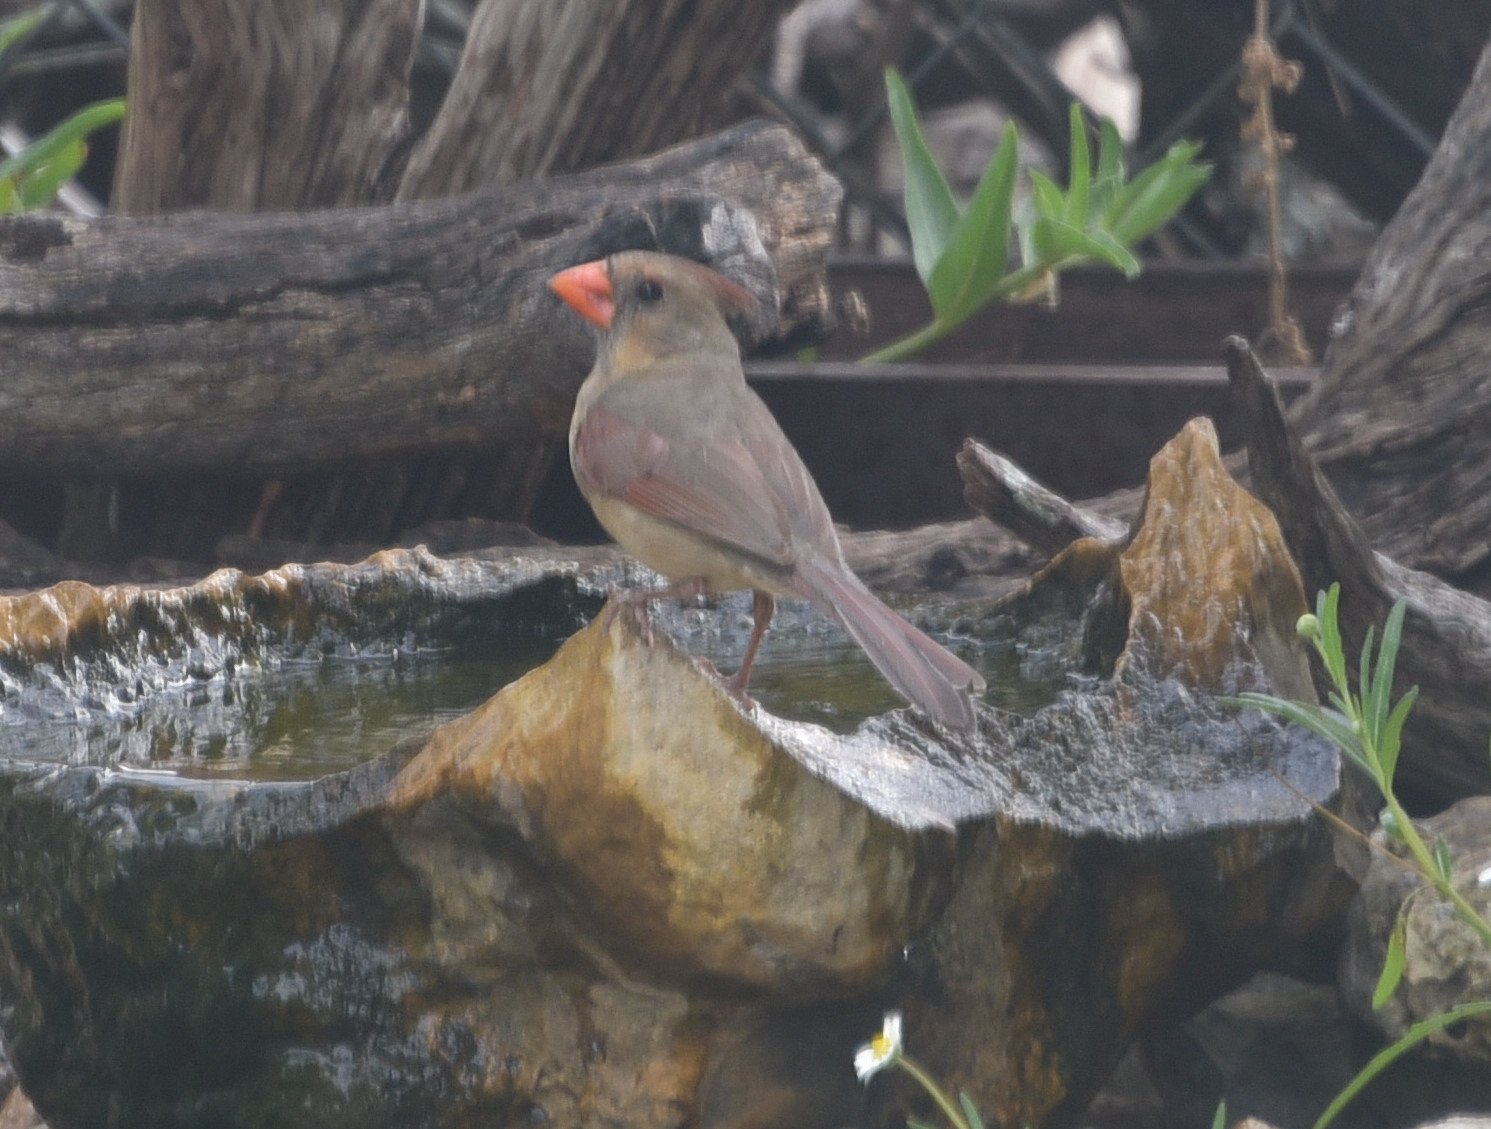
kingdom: Animalia
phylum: Chordata
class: Aves
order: Passeriformes
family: Cardinalidae
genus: Cardinalis
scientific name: Cardinalis cardinalis
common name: Northern cardinal
